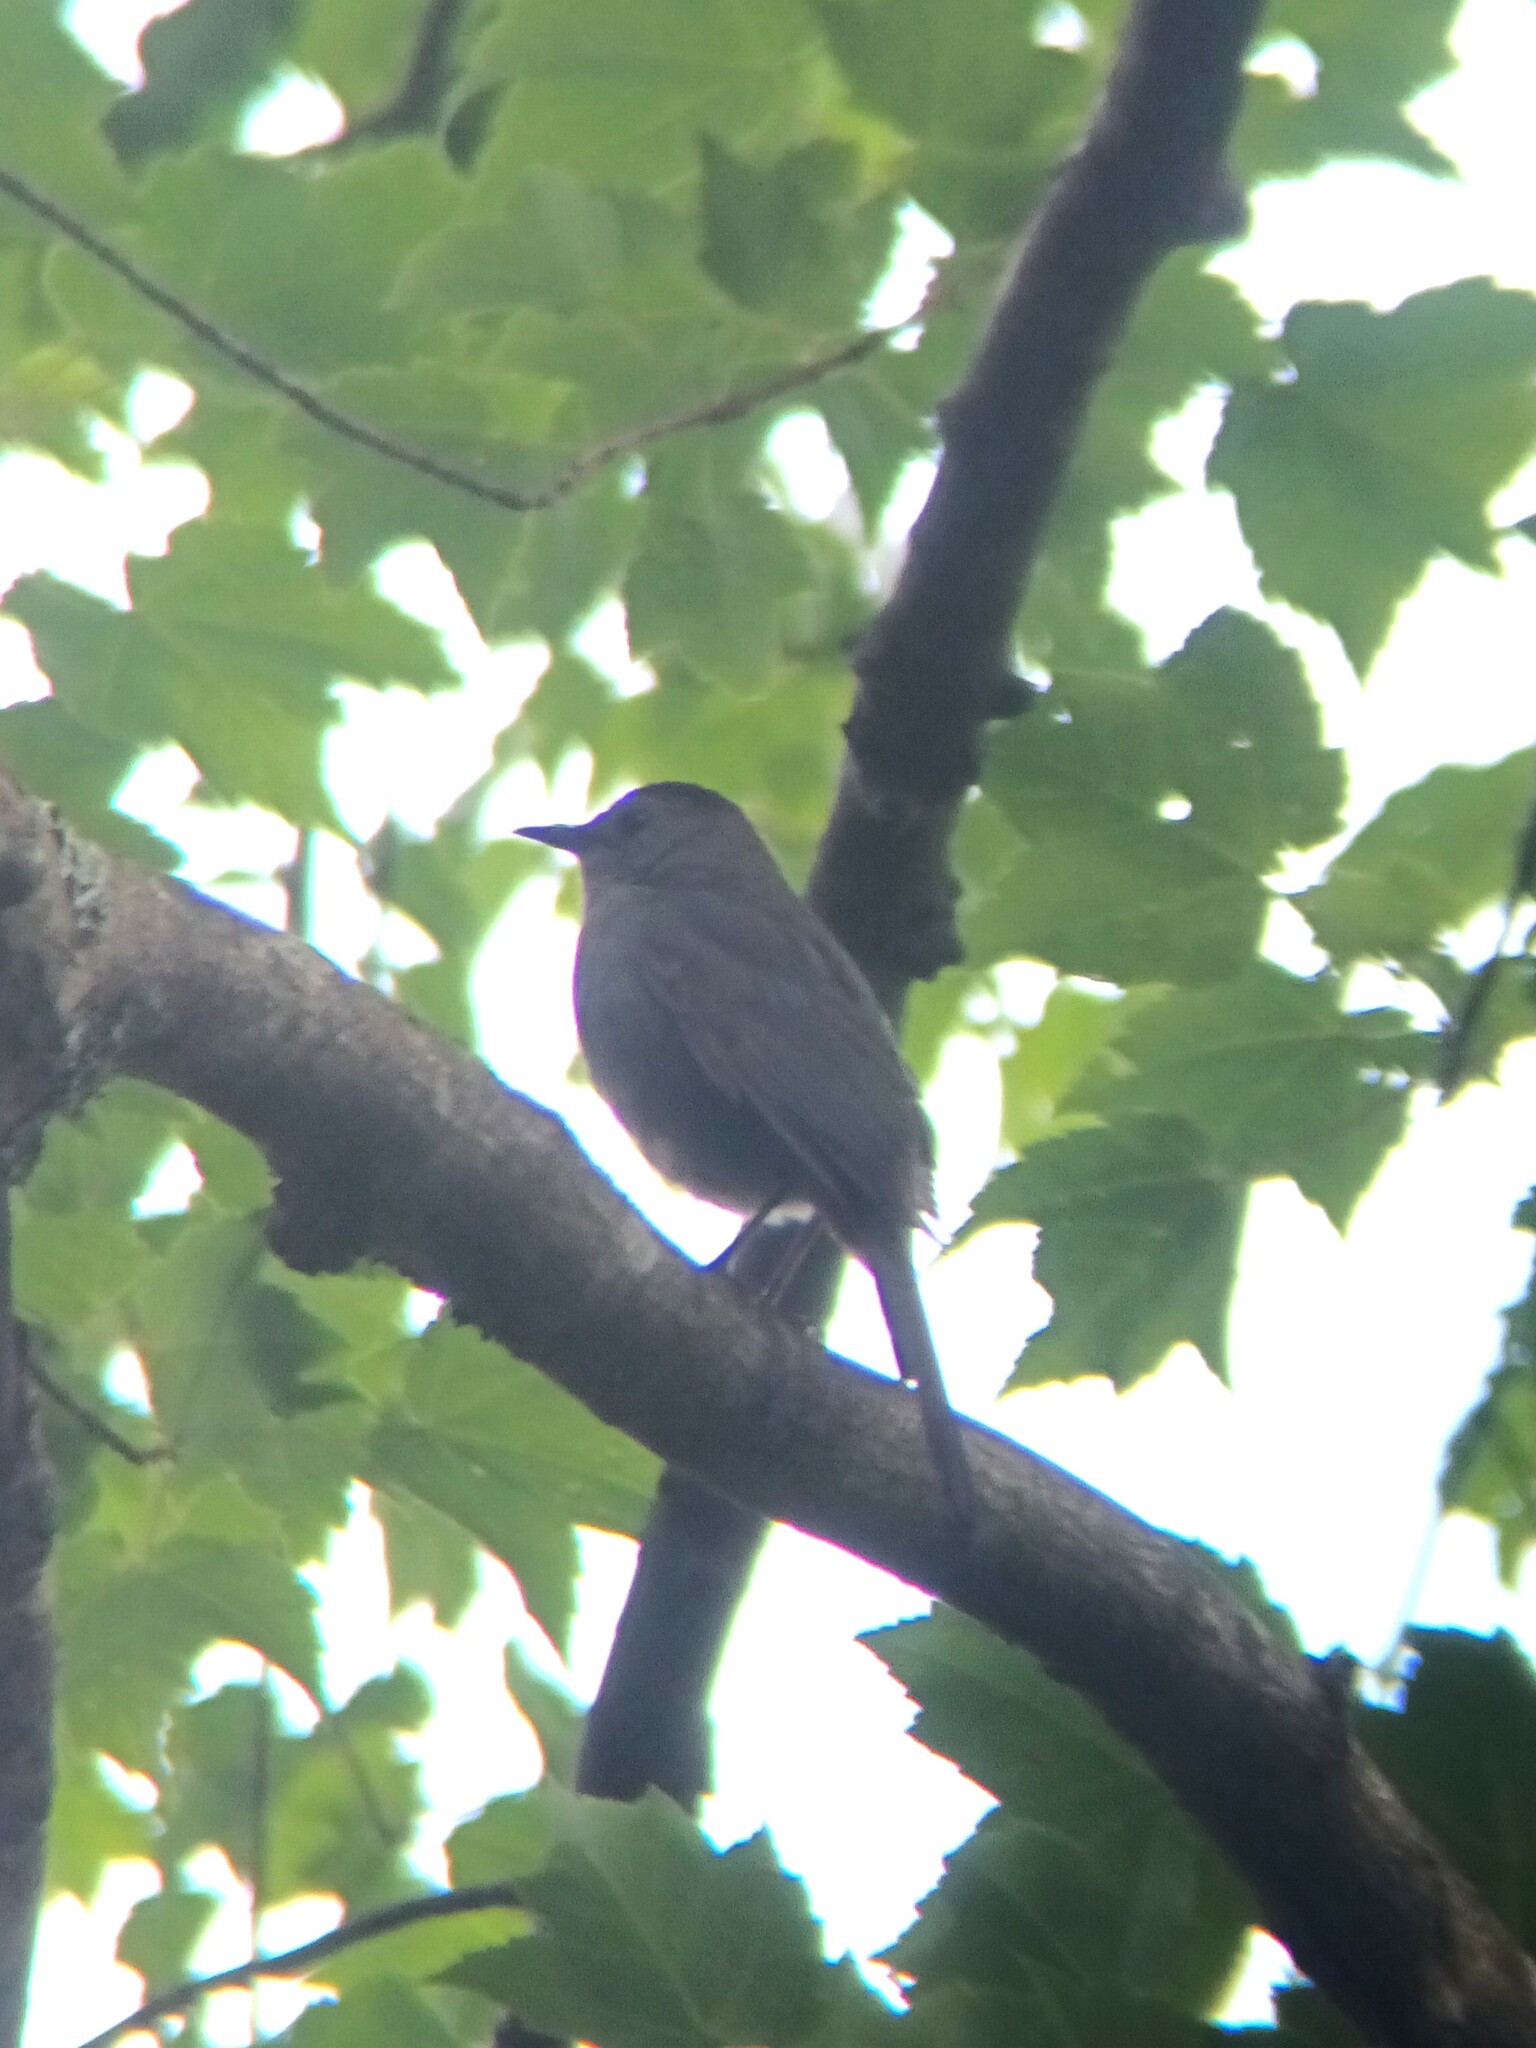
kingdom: Animalia
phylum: Chordata
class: Aves
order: Passeriformes
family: Mimidae
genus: Dumetella
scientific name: Dumetella carolinensis
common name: Gray catbird
